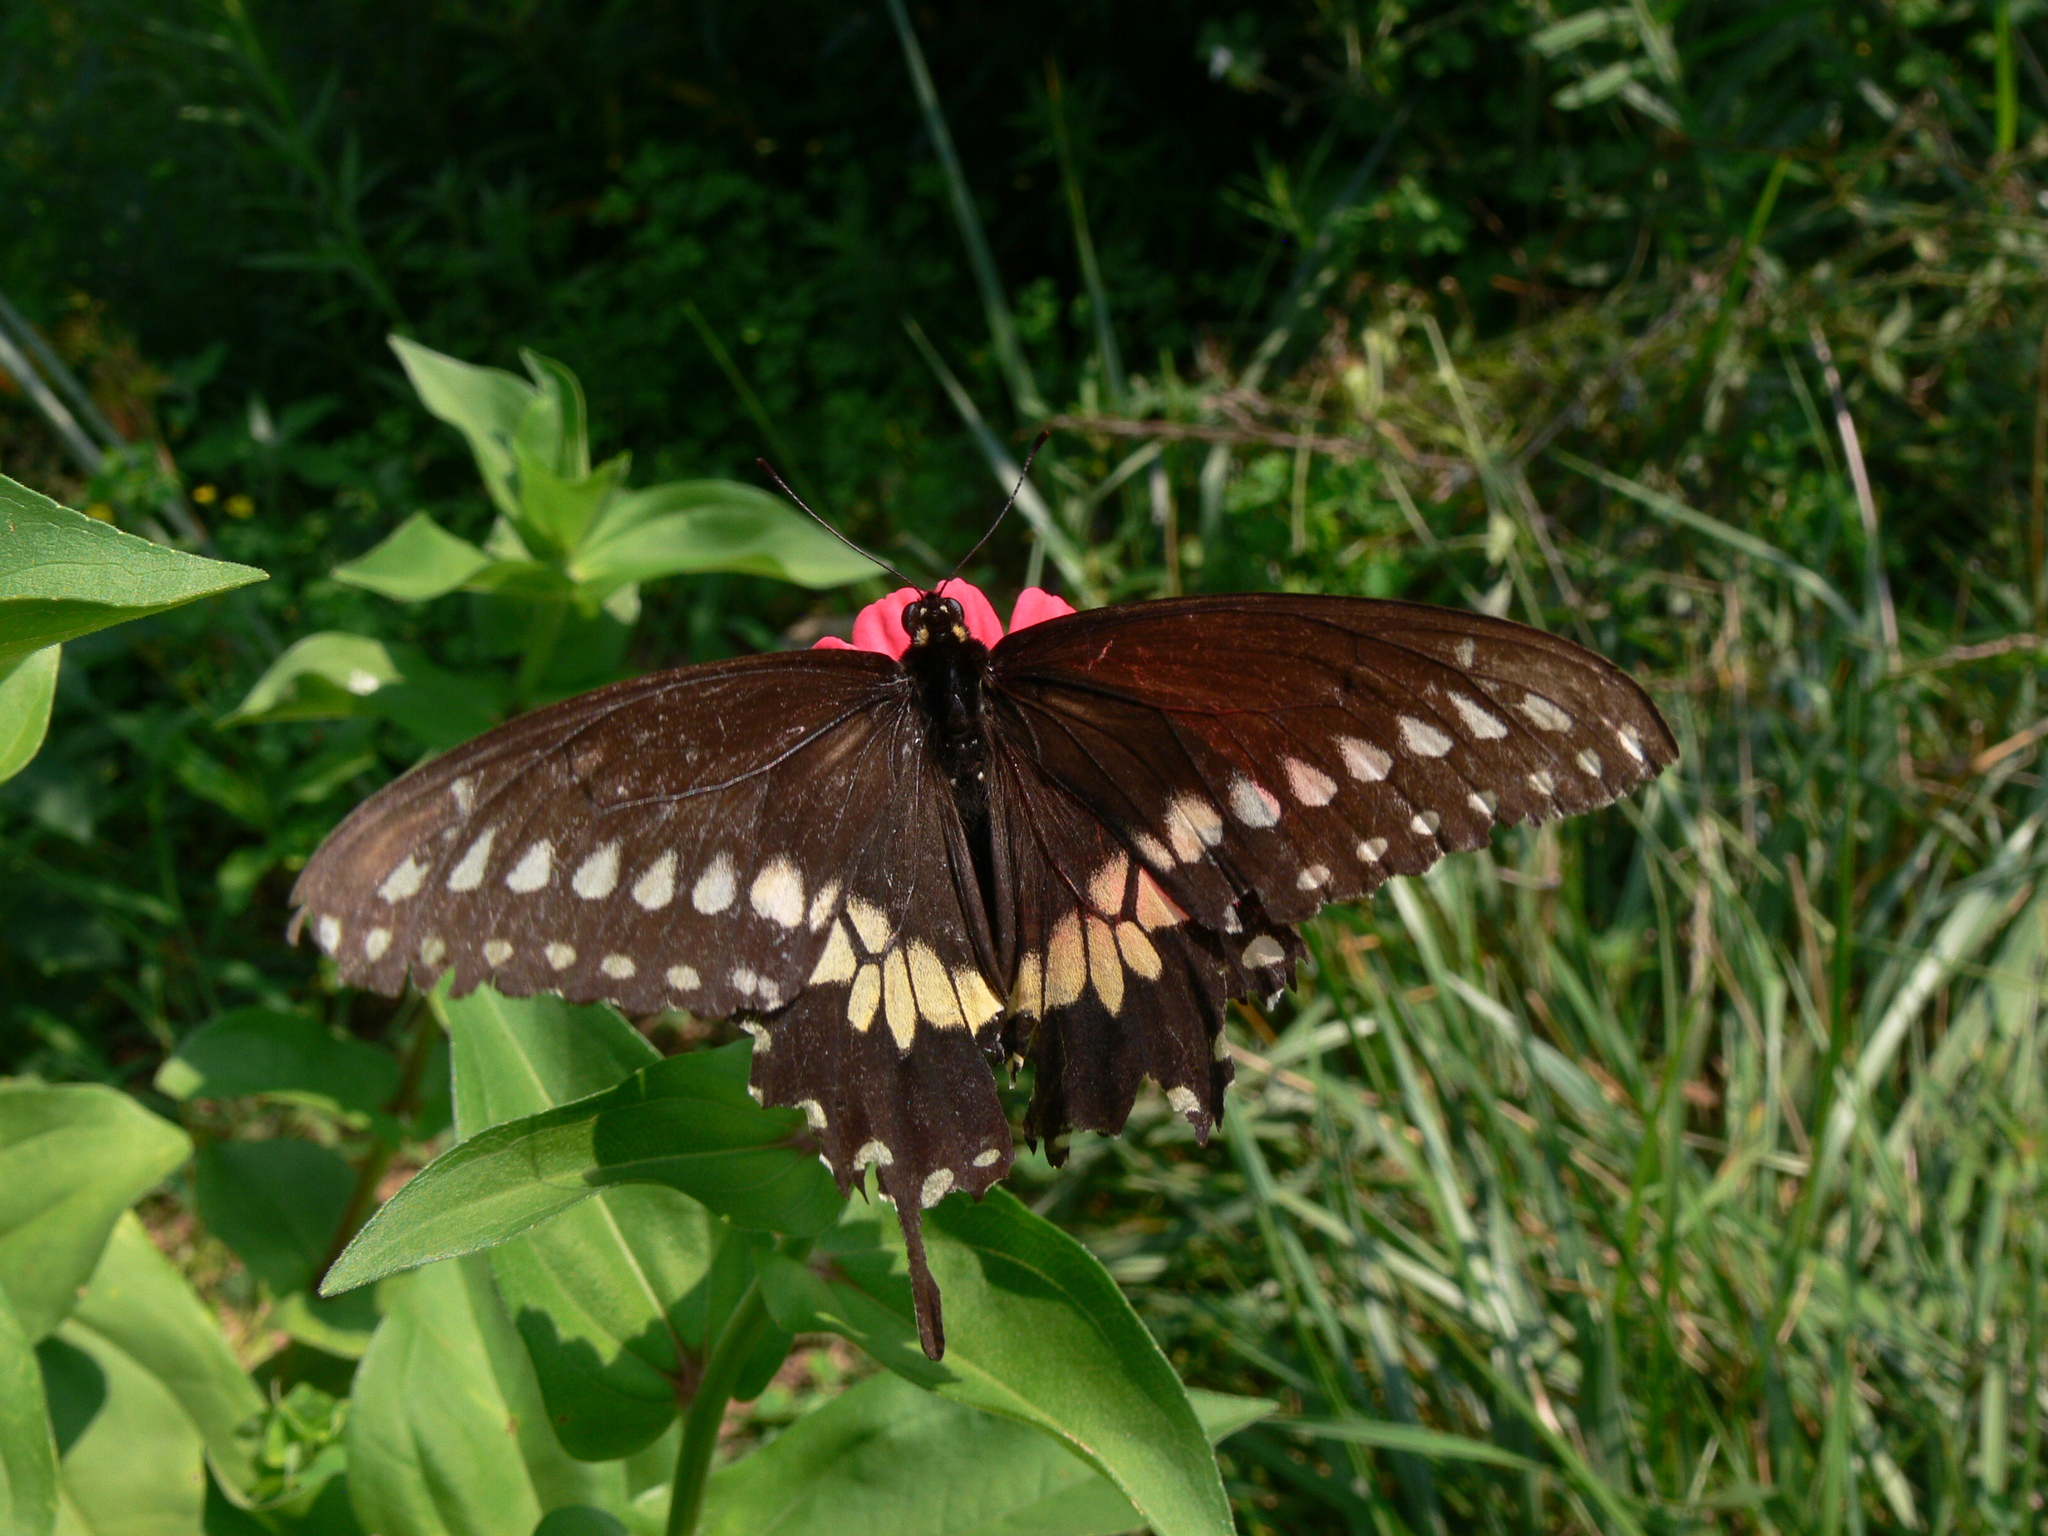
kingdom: Animalia
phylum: Arthropoda
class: Insecta
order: Lepidoptera
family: Papilionidae
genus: Papilio
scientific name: Papilio polyxenes
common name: Black swallowtail
